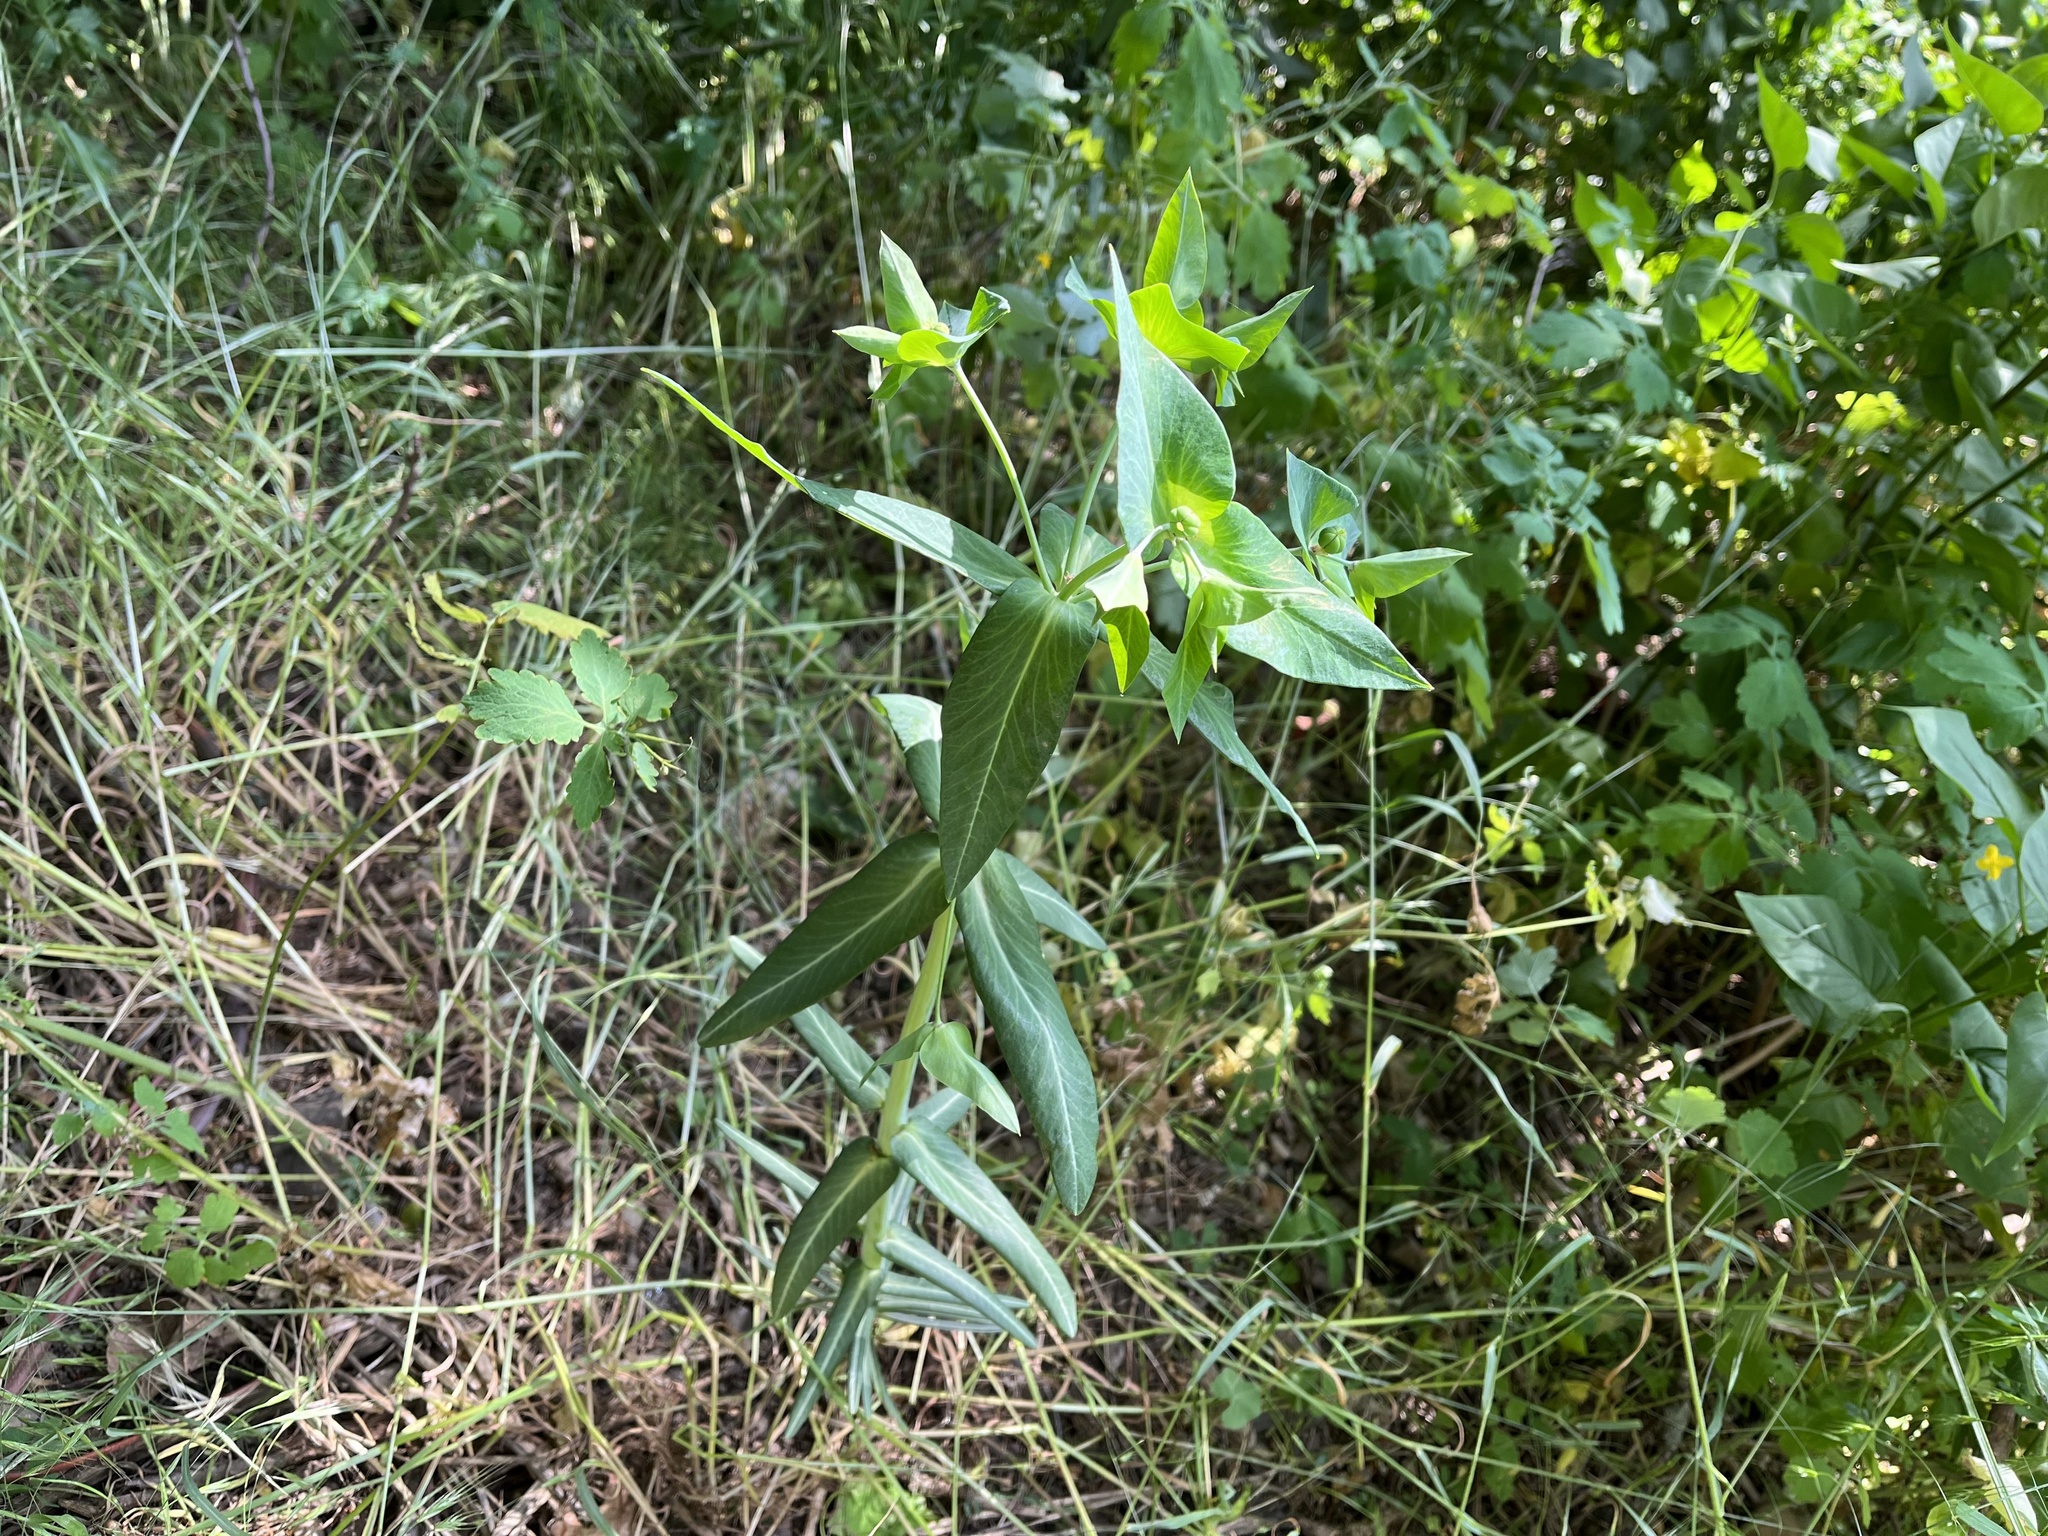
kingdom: Plantae
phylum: Tracheophyta
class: Magnoliopsida
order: Malpighiales
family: Euphorbiaceae
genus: Euphorbia
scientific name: Euphorbia lathyris
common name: Caper spurge
